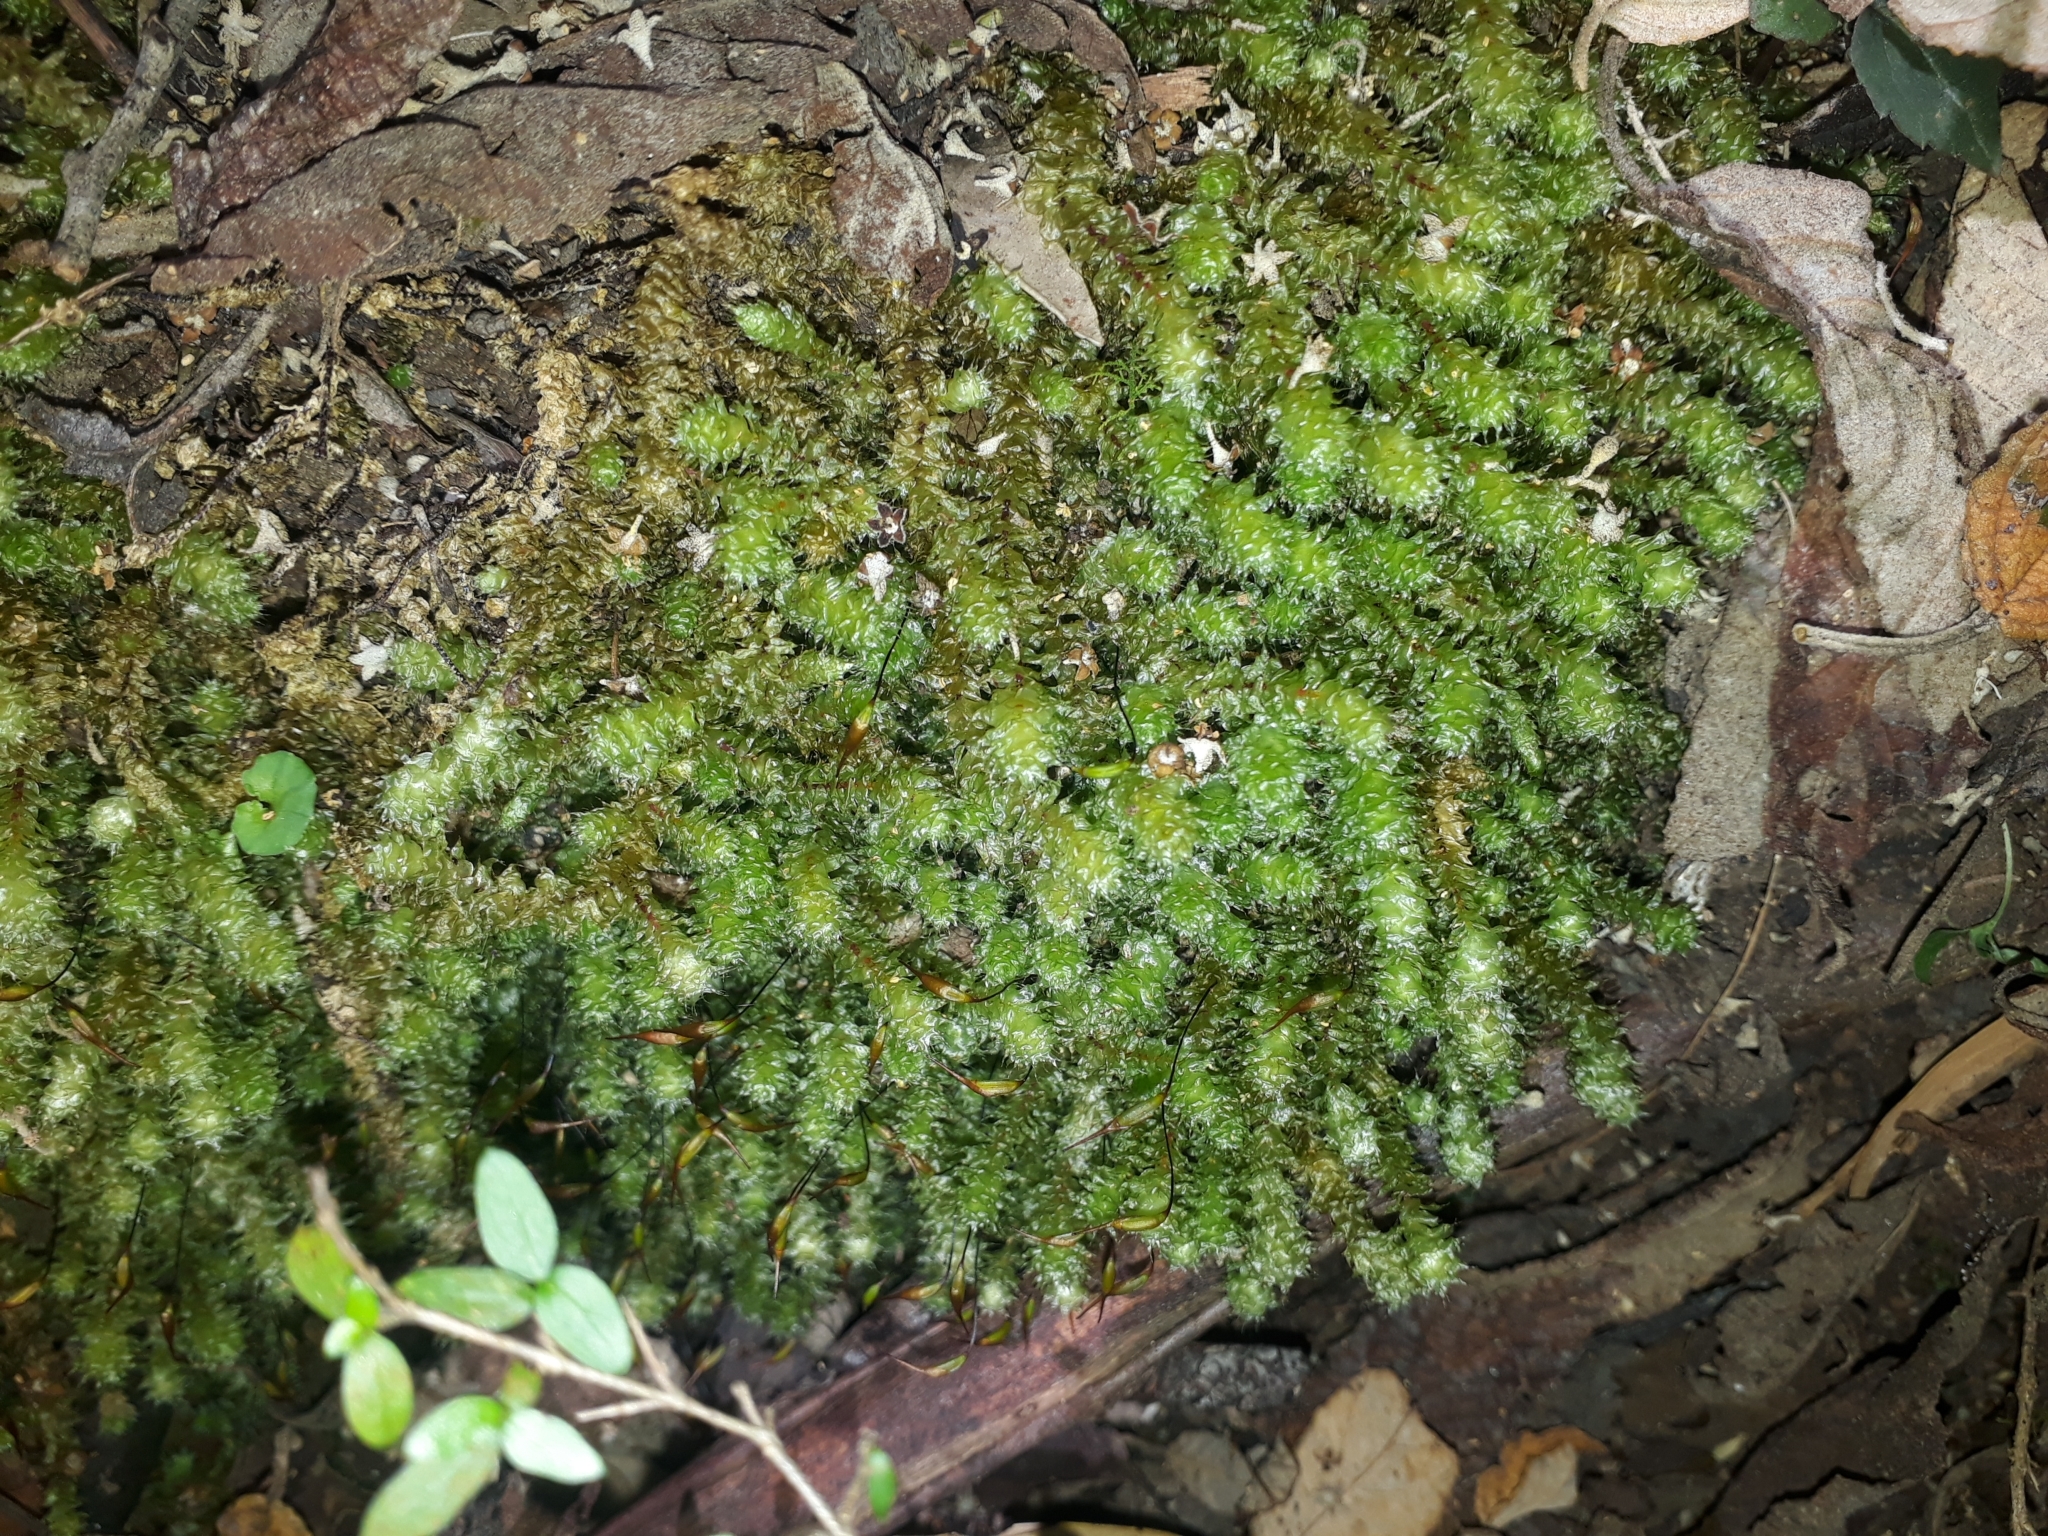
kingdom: Plantae
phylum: Bryophyta
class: Bryopsida
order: Ptychomniales
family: Ptychomniaceae
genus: Ptychomnion
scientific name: Ptychomnion aciculare
